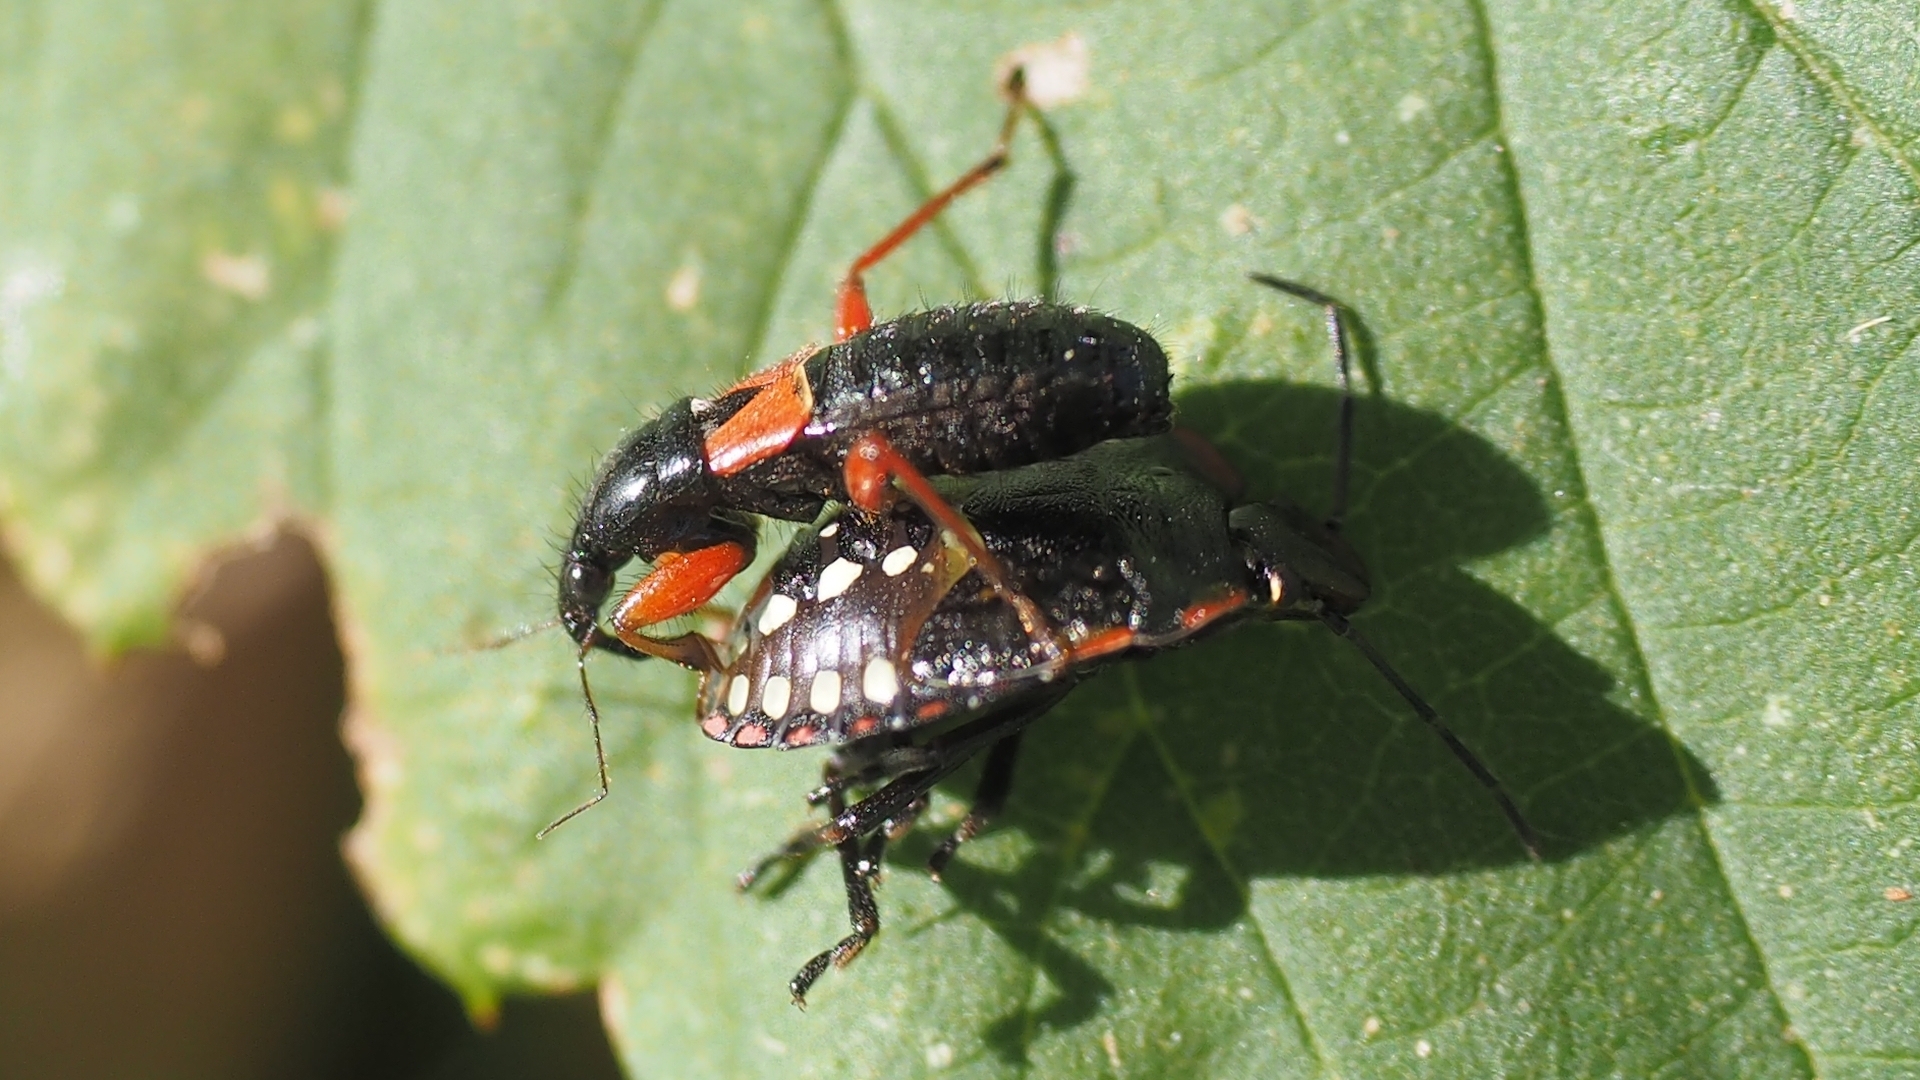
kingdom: Animalia
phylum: Arthropoda
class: Insecta
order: Hemiptera
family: Nabidae
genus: Prostemma
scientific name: Prostemma guttula
